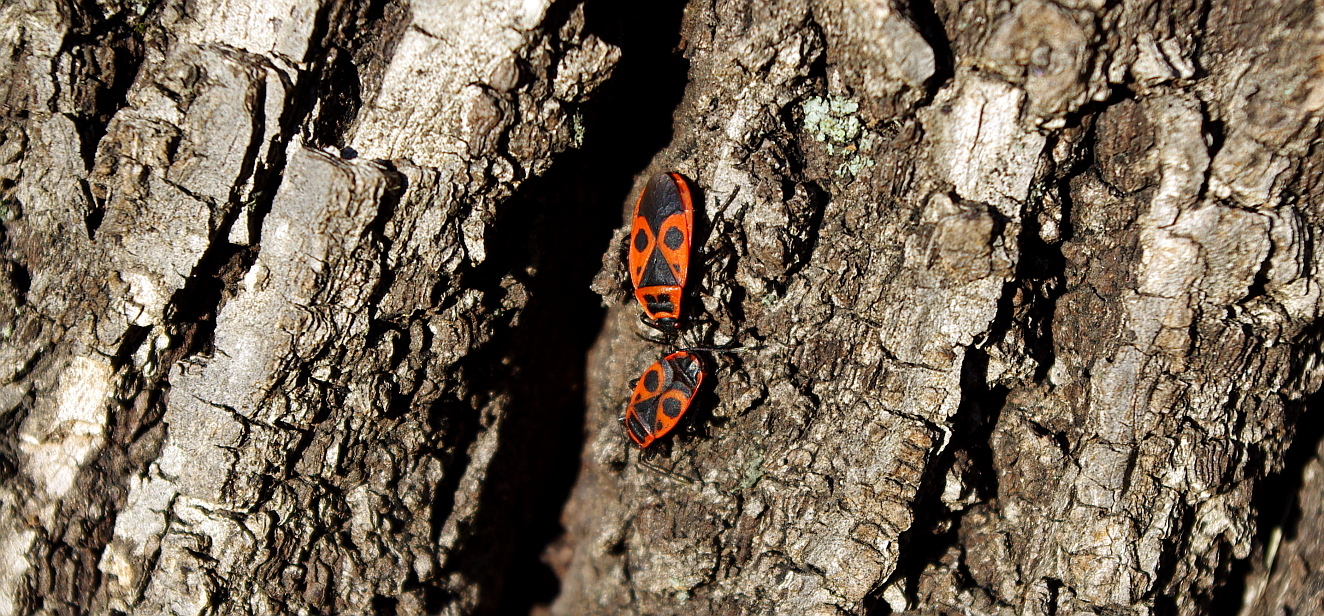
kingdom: Animalia
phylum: Arthropoda
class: Insecta
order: Hemiptera
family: Pyrrhocoridae
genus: Pyrrhocoris
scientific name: Pyrrhocoris apterus
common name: Firebug
